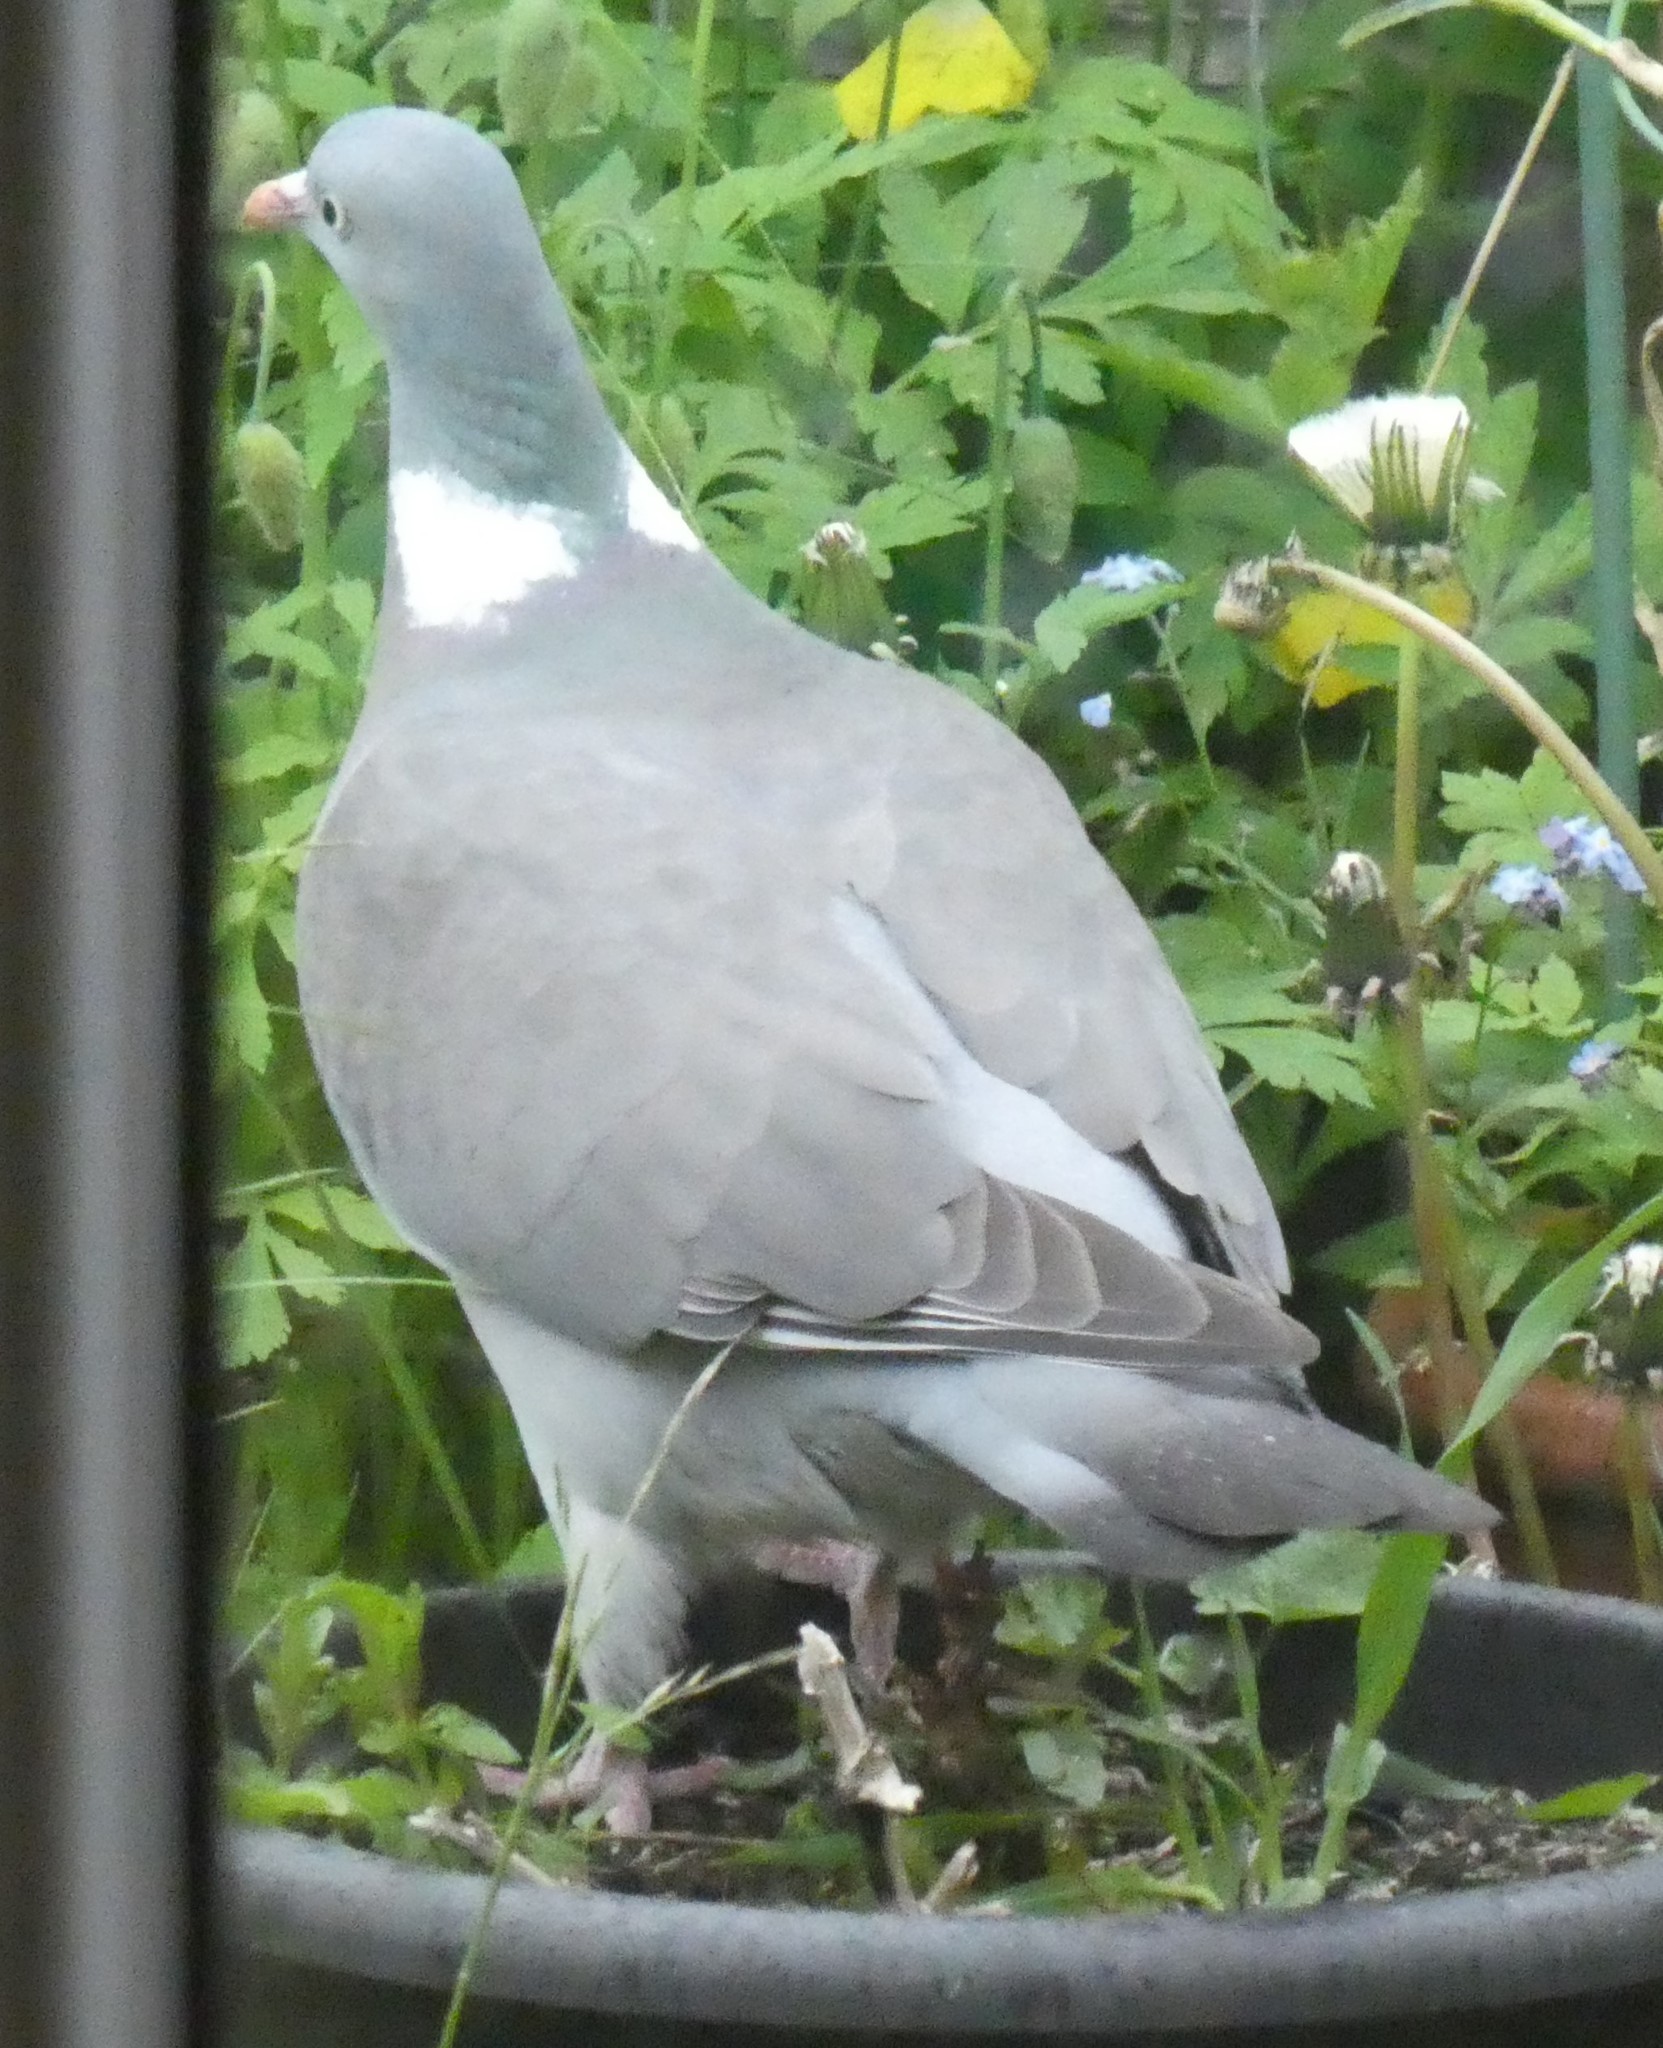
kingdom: Animalia
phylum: Chordata
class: Aves
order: Columbiformes
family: Columbidae
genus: Columba
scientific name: Columba palumbus
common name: Common wood pigeon
